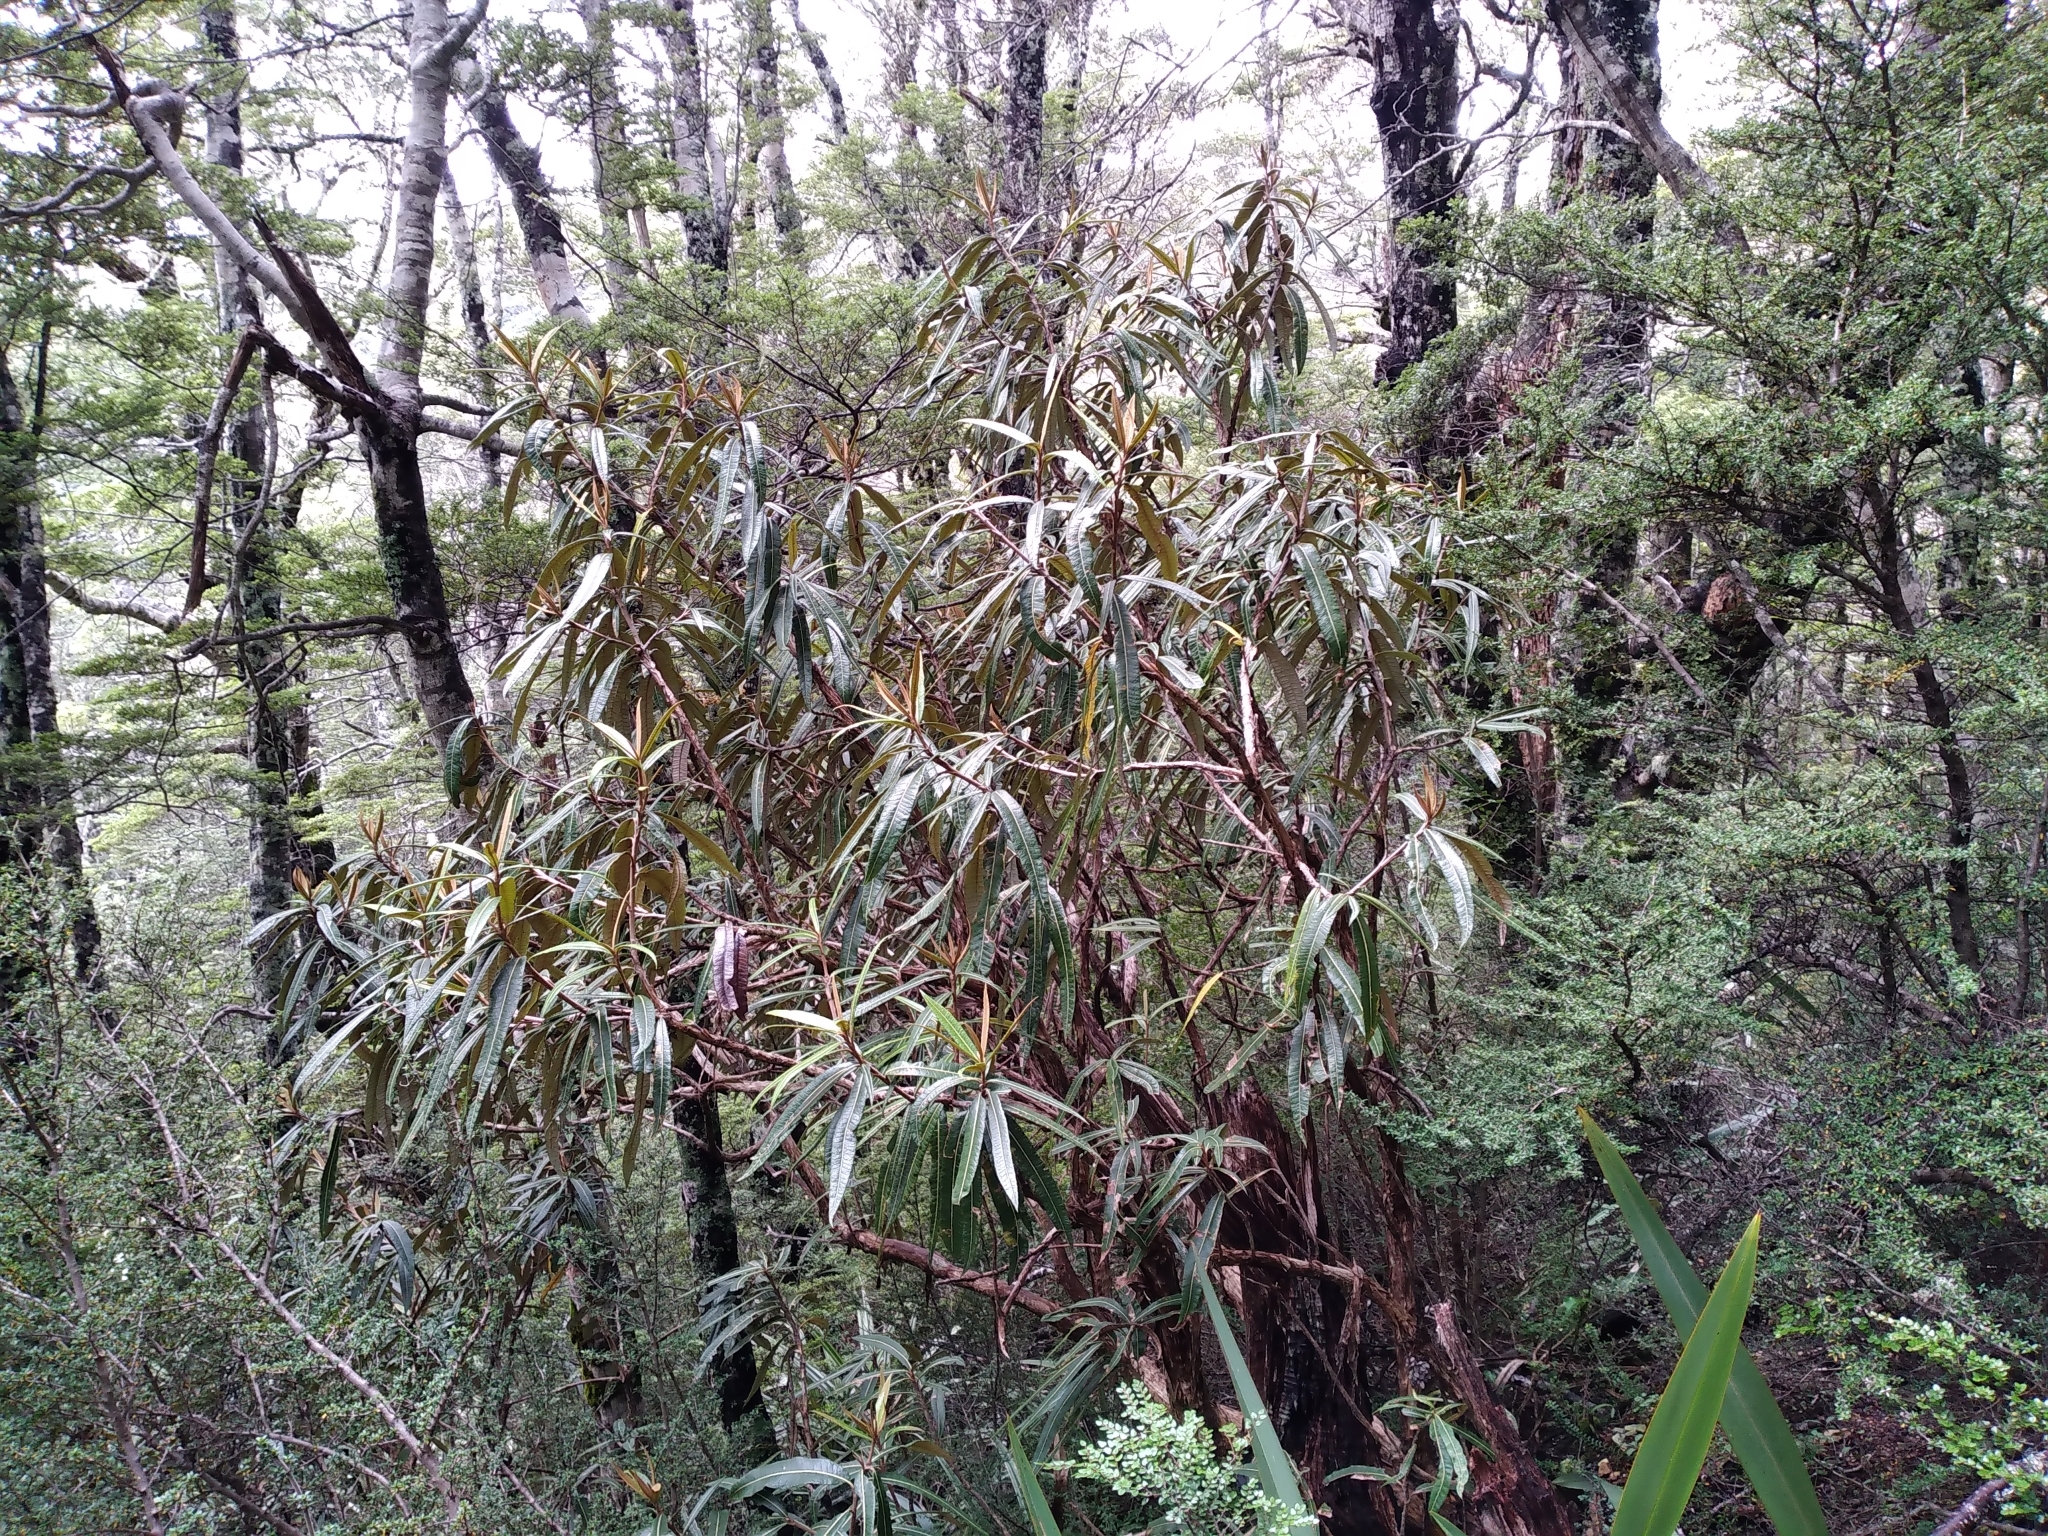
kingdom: Plantae
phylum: Tracheophyta
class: Magnoliopsida
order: Asterales
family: Asteraceae
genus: Olearia
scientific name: Olearia lacunosa
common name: Lancewood tree daisy
